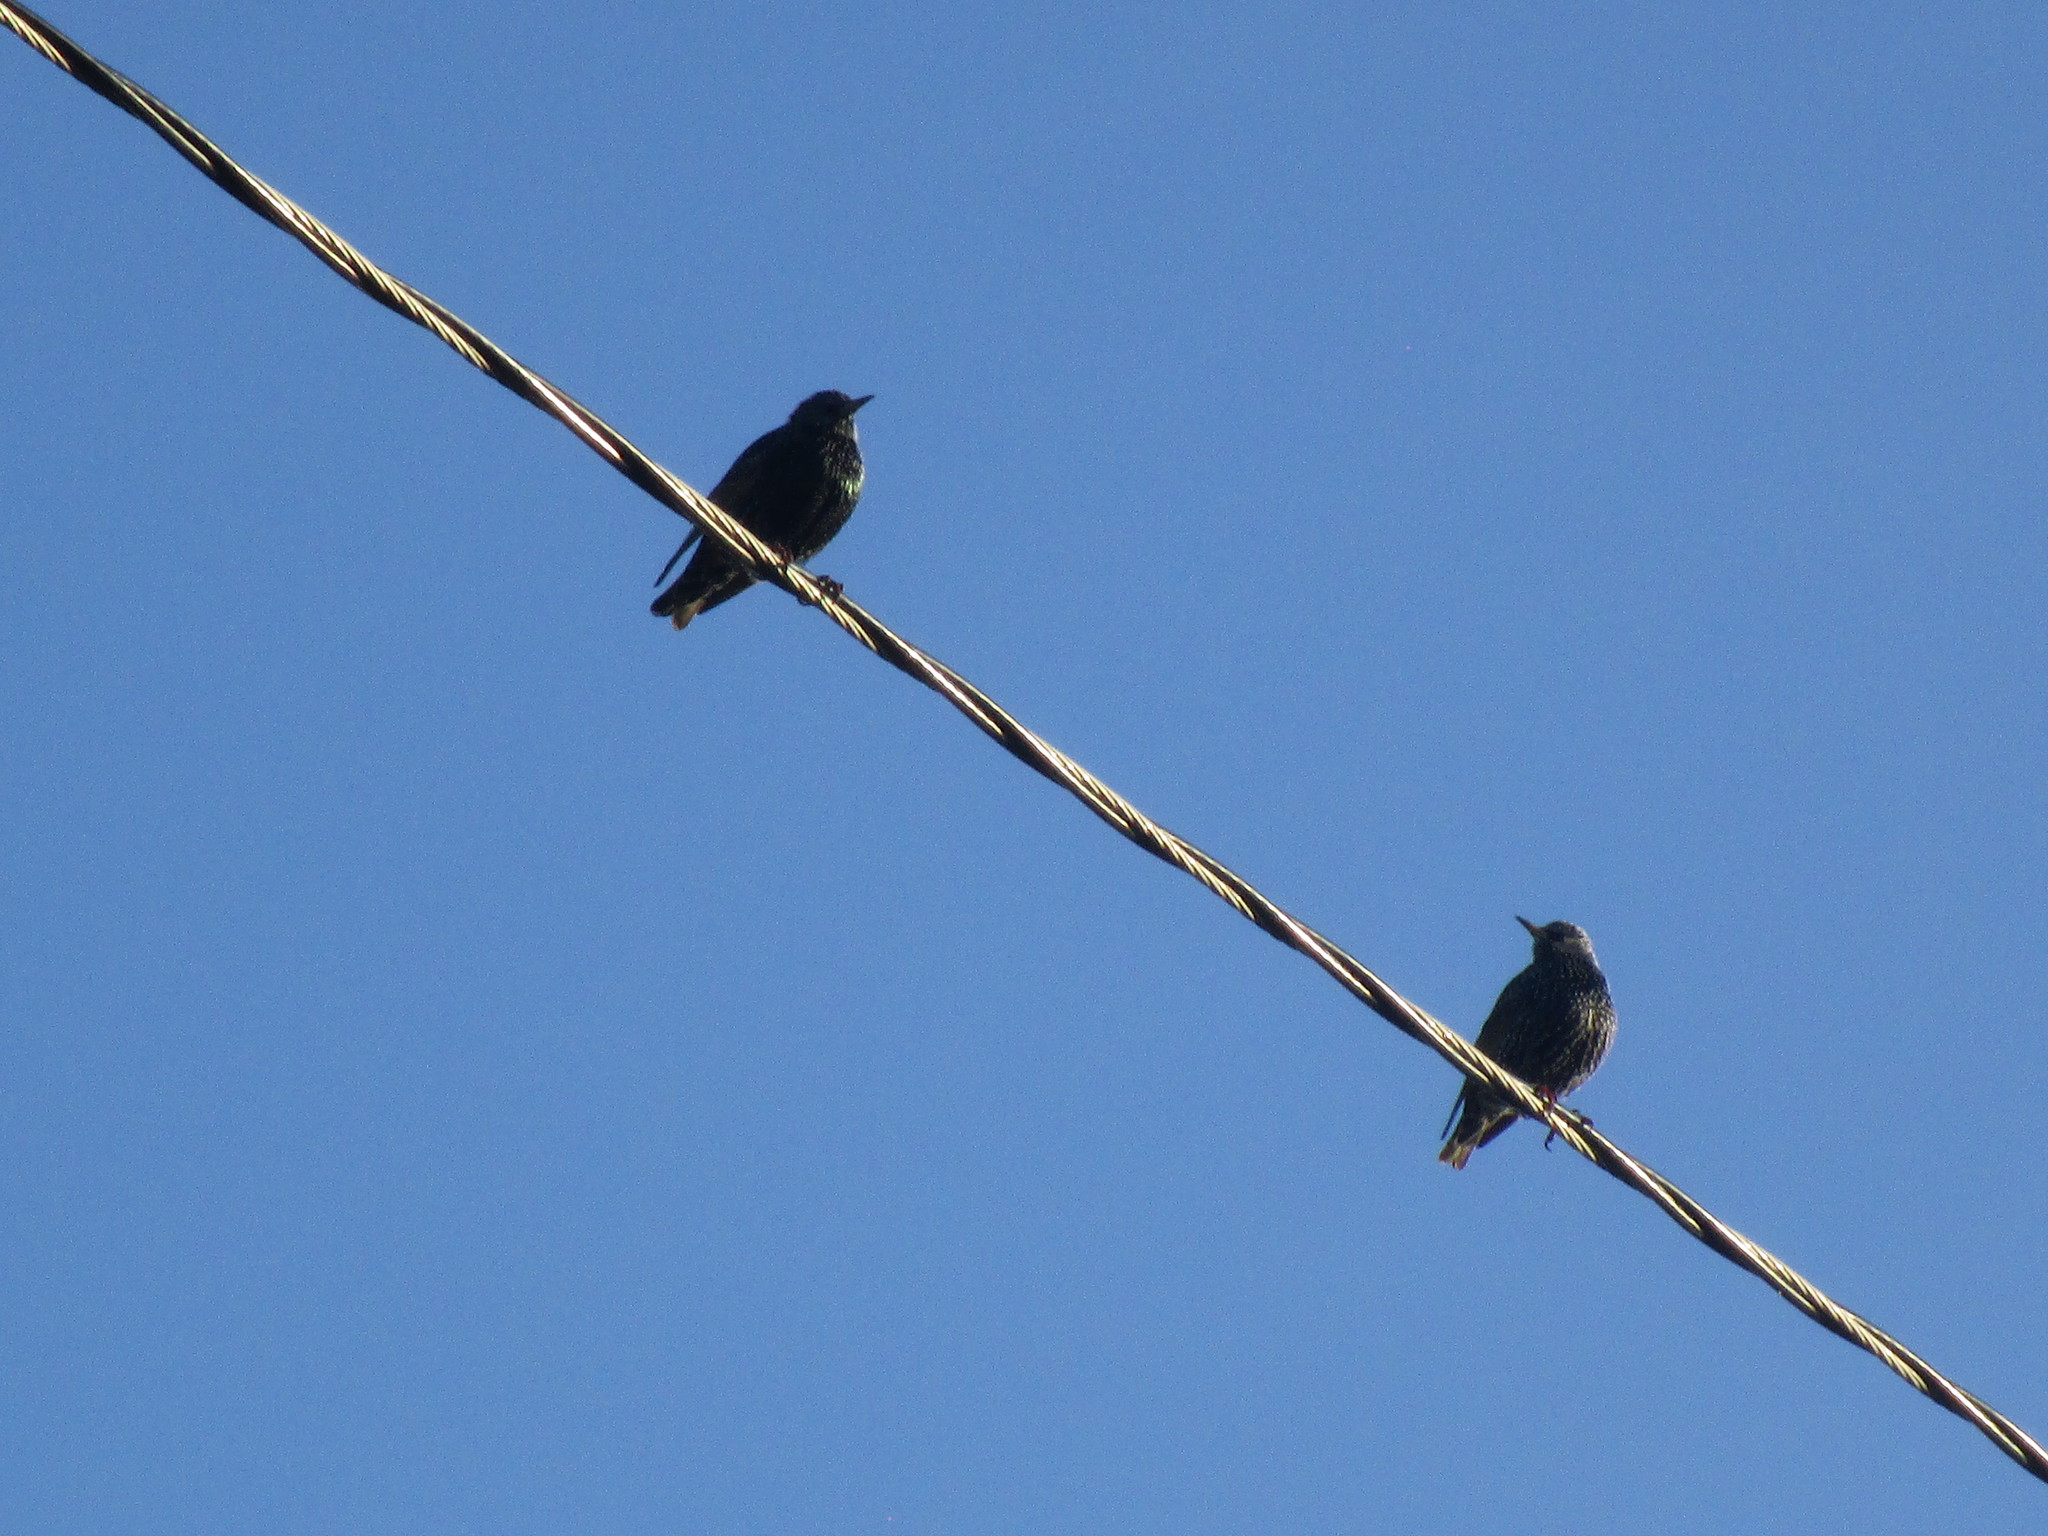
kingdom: Animalia
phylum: Chordata
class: Aves
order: Passeriformes
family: Sturnidae
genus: Sturnus
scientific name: Sturnus vulgaris
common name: Common starling
